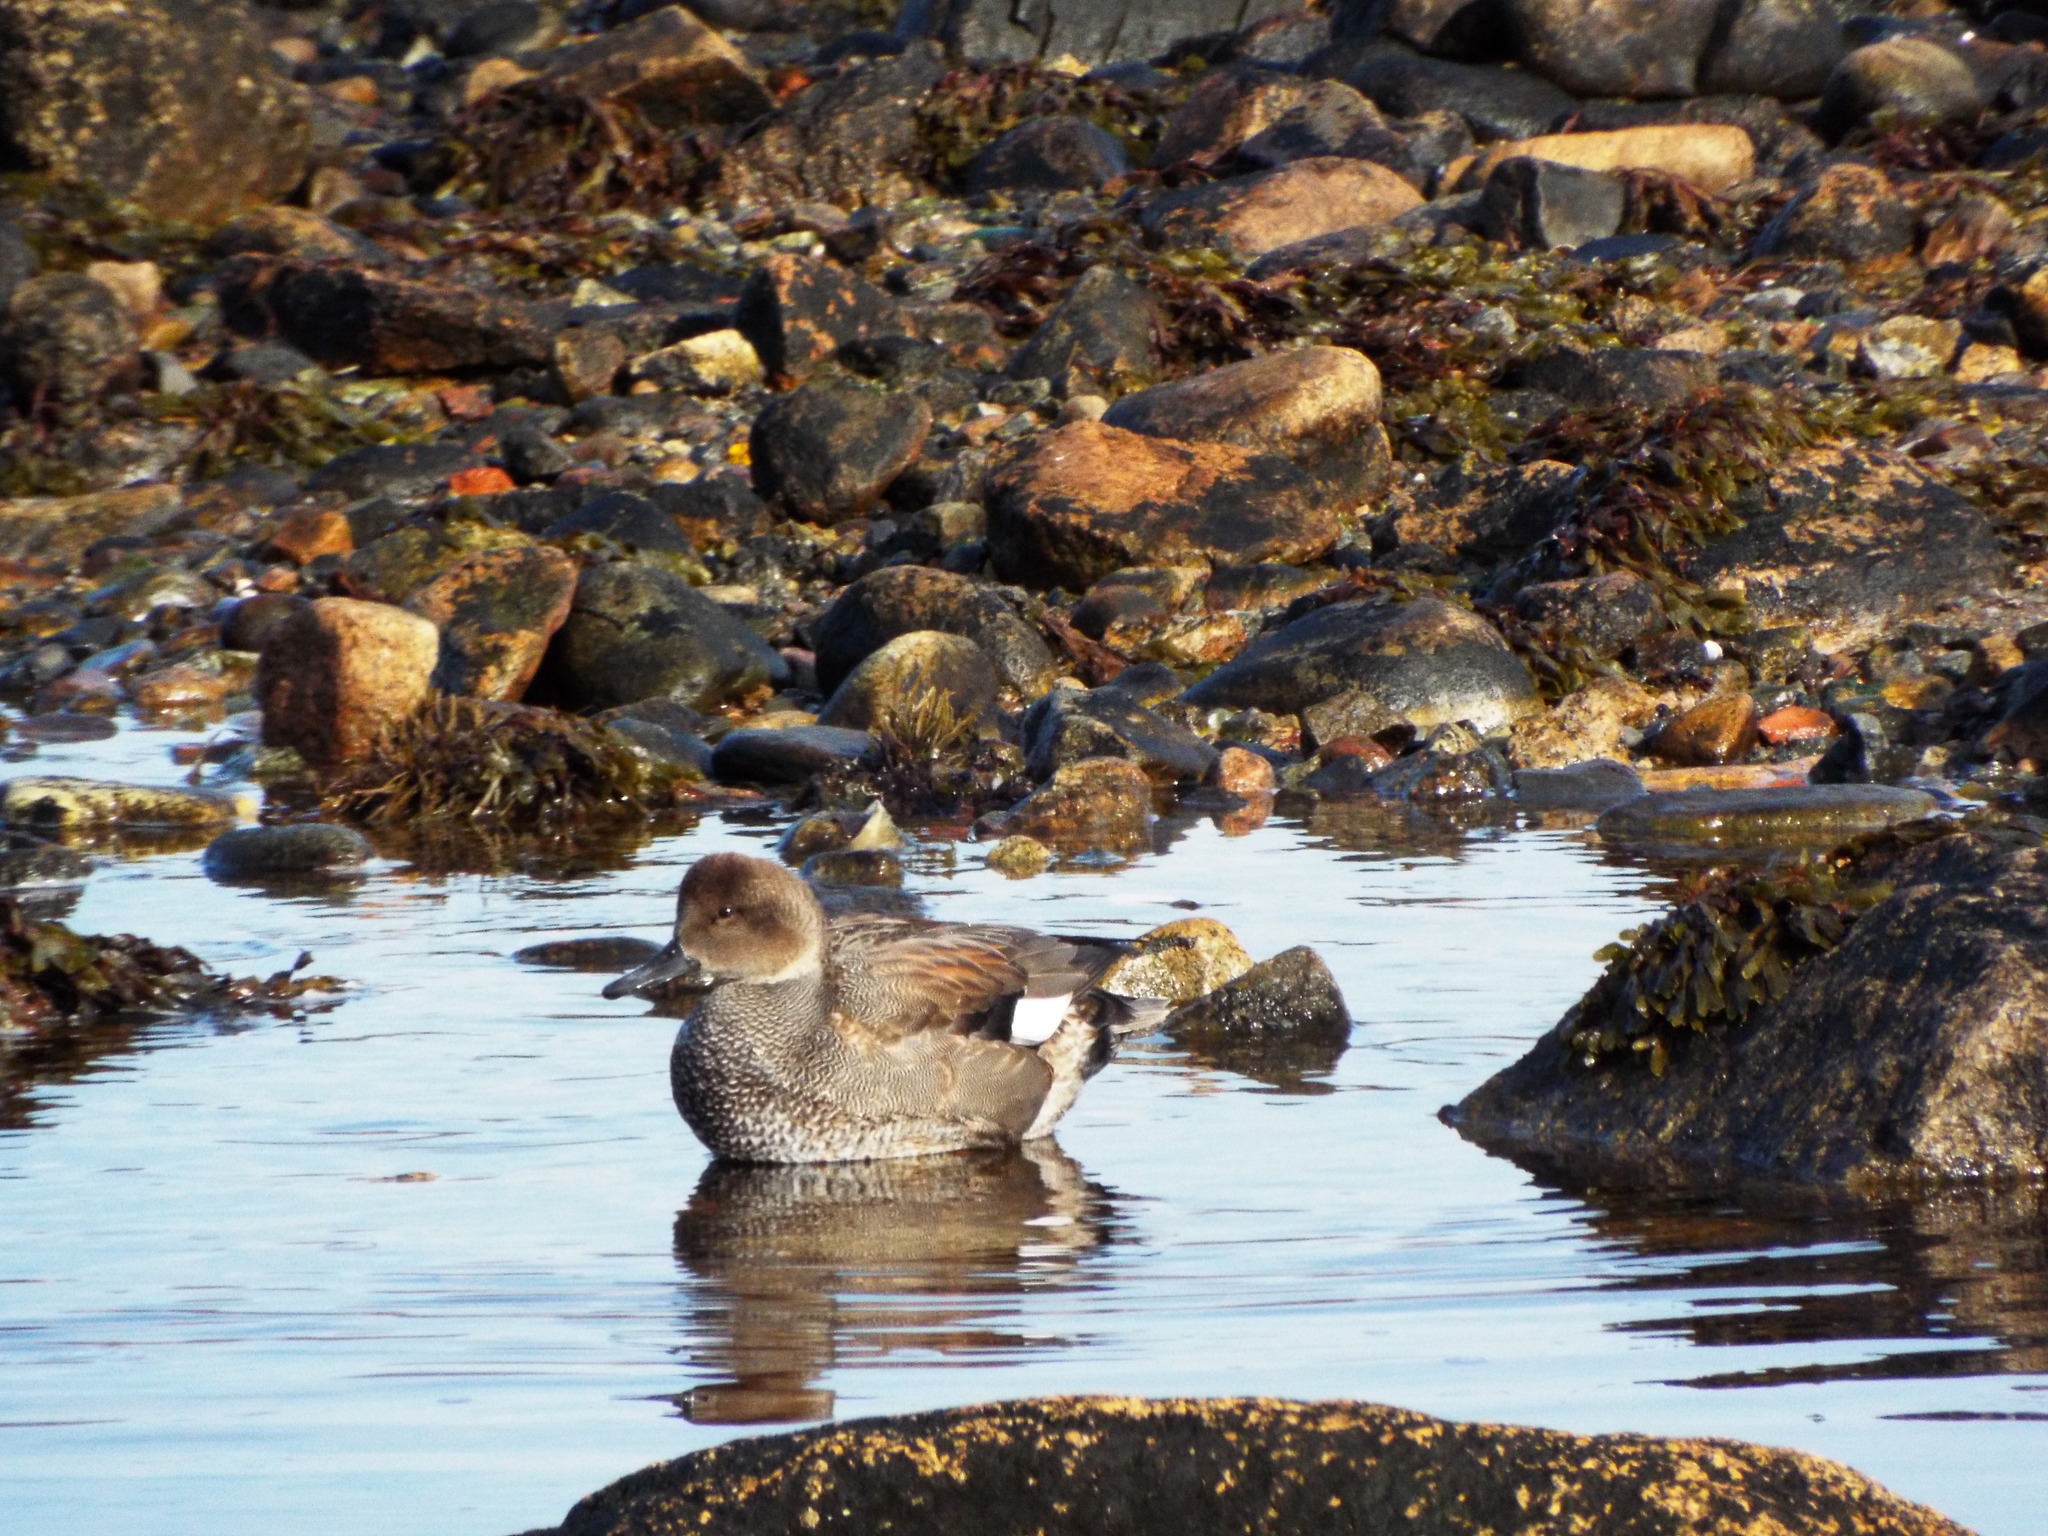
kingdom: Animalia
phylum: Chordata
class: Aves
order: Anseriformes
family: Anatidae
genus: Mareca
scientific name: Mareca strepera
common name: Gadwall
